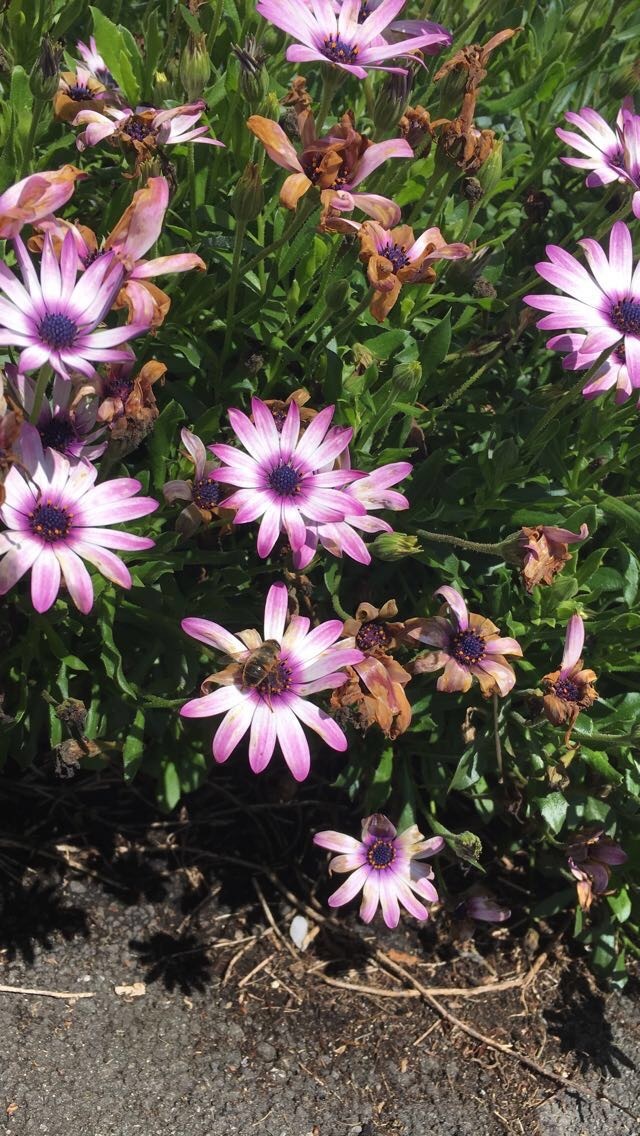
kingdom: Animalia
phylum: Arthropoda
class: Insecta
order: Diptera
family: Syrphidae
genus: Eristalis
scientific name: Eristalis tenax
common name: Drone fly
